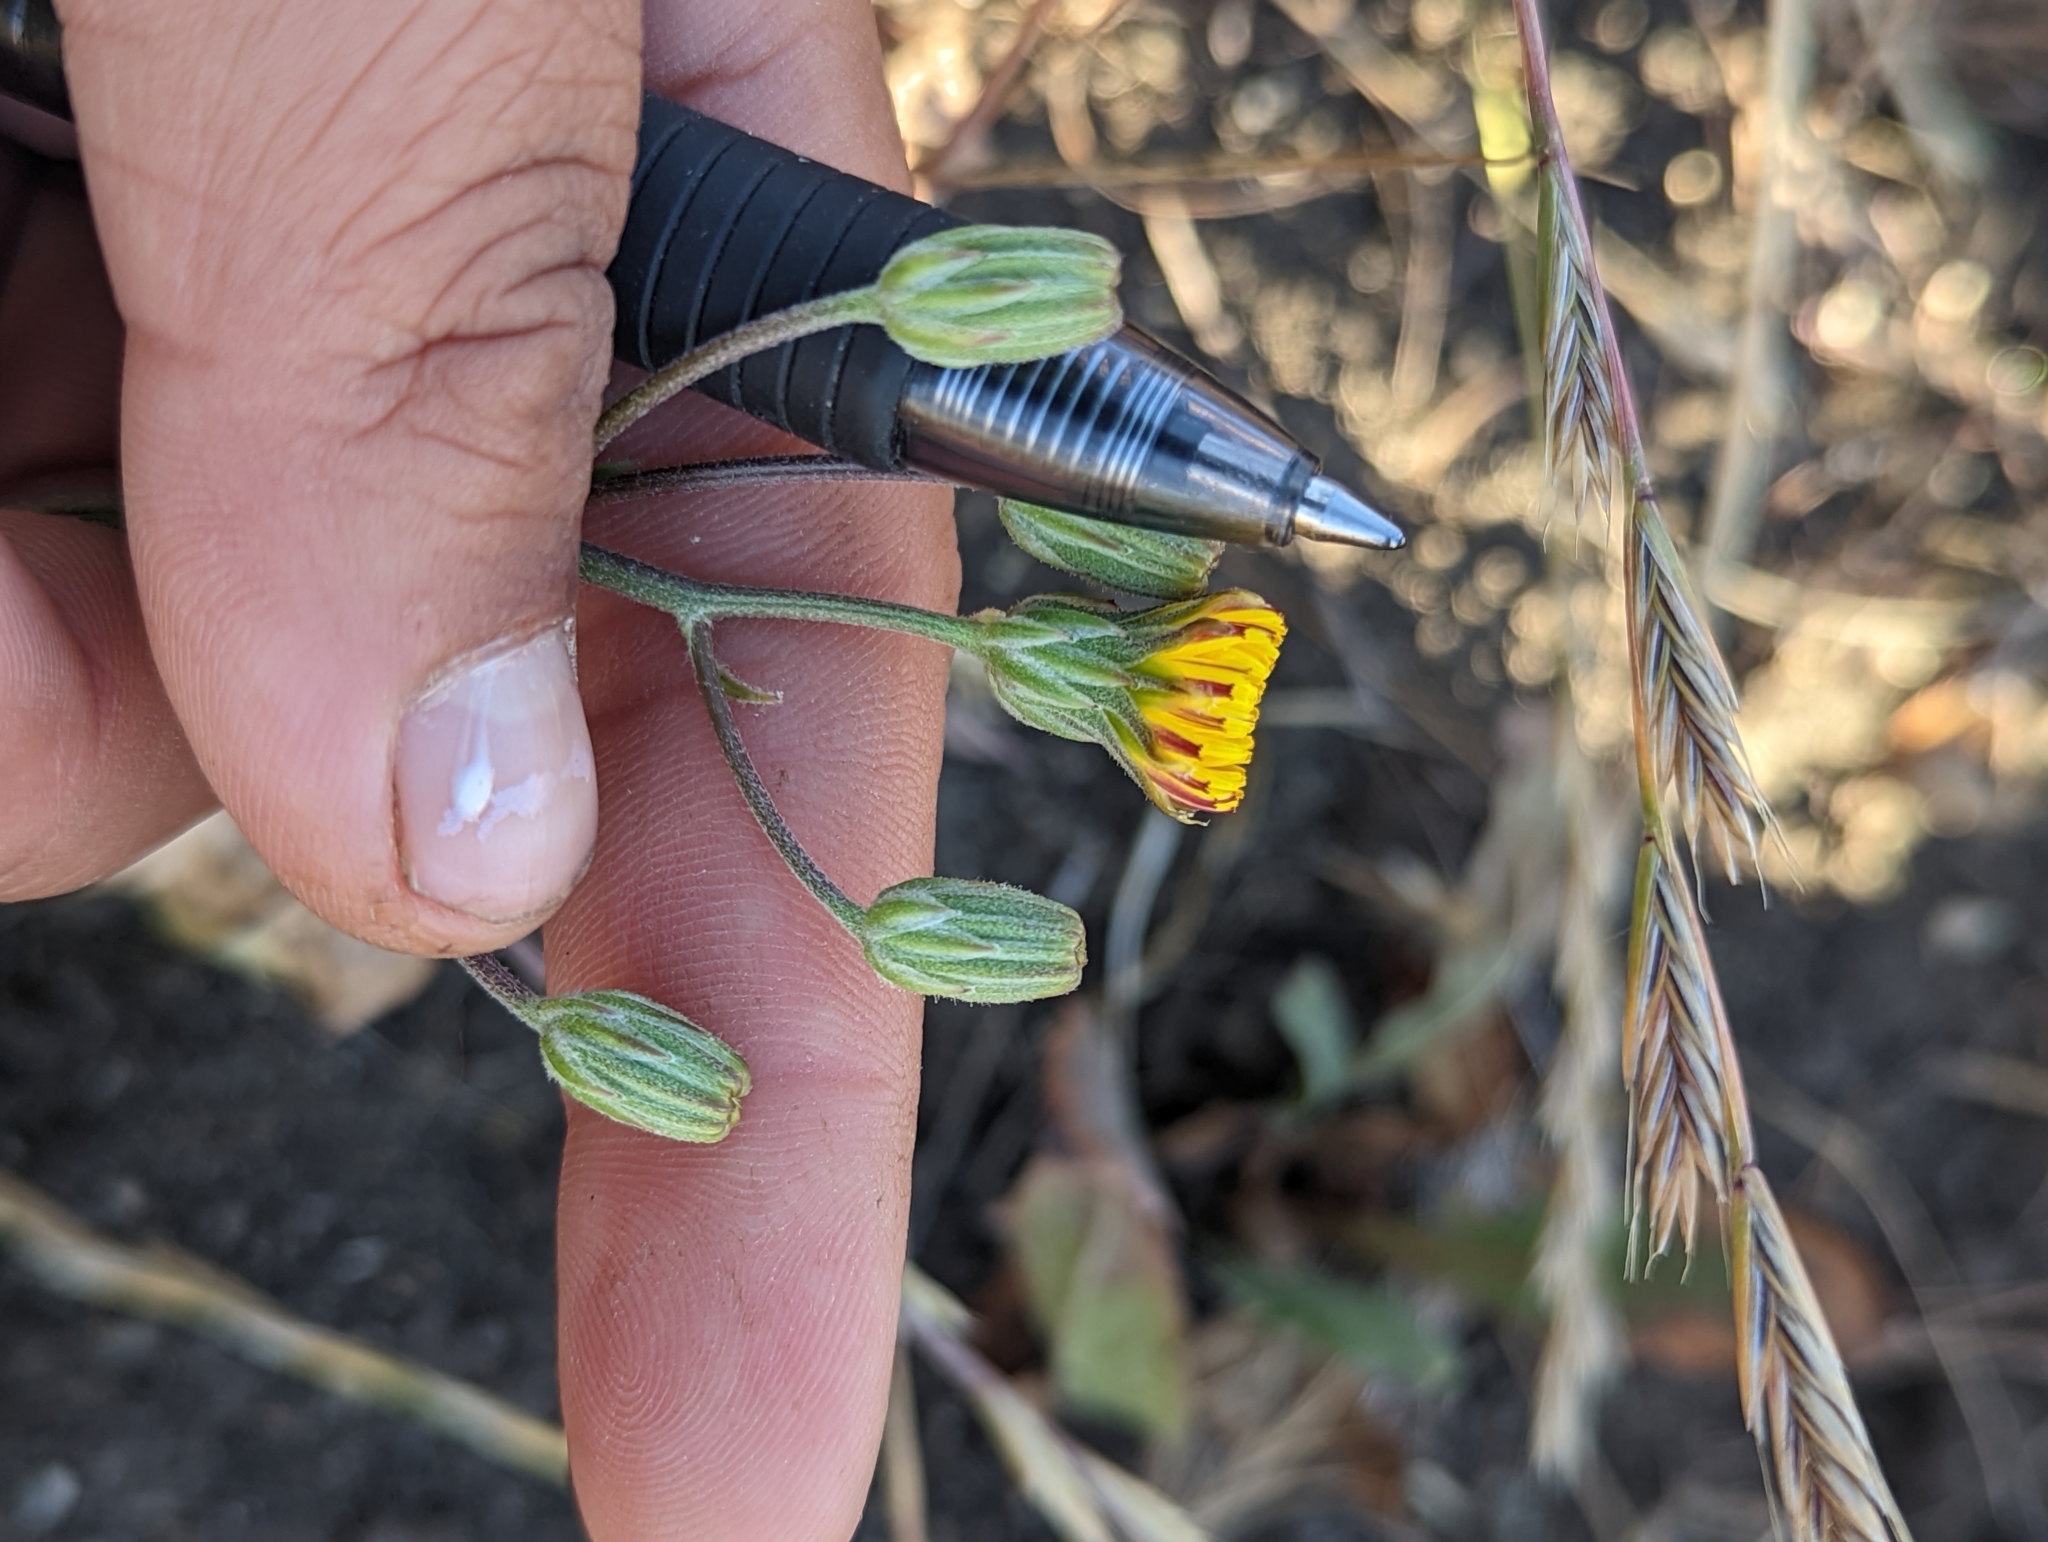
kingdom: Plantae
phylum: Tracheophyta
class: Magnoliopsida
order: Asterales
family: Asteraceae
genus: Crepis
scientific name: Crepis vesicaria
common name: Beaked hawksbeard
